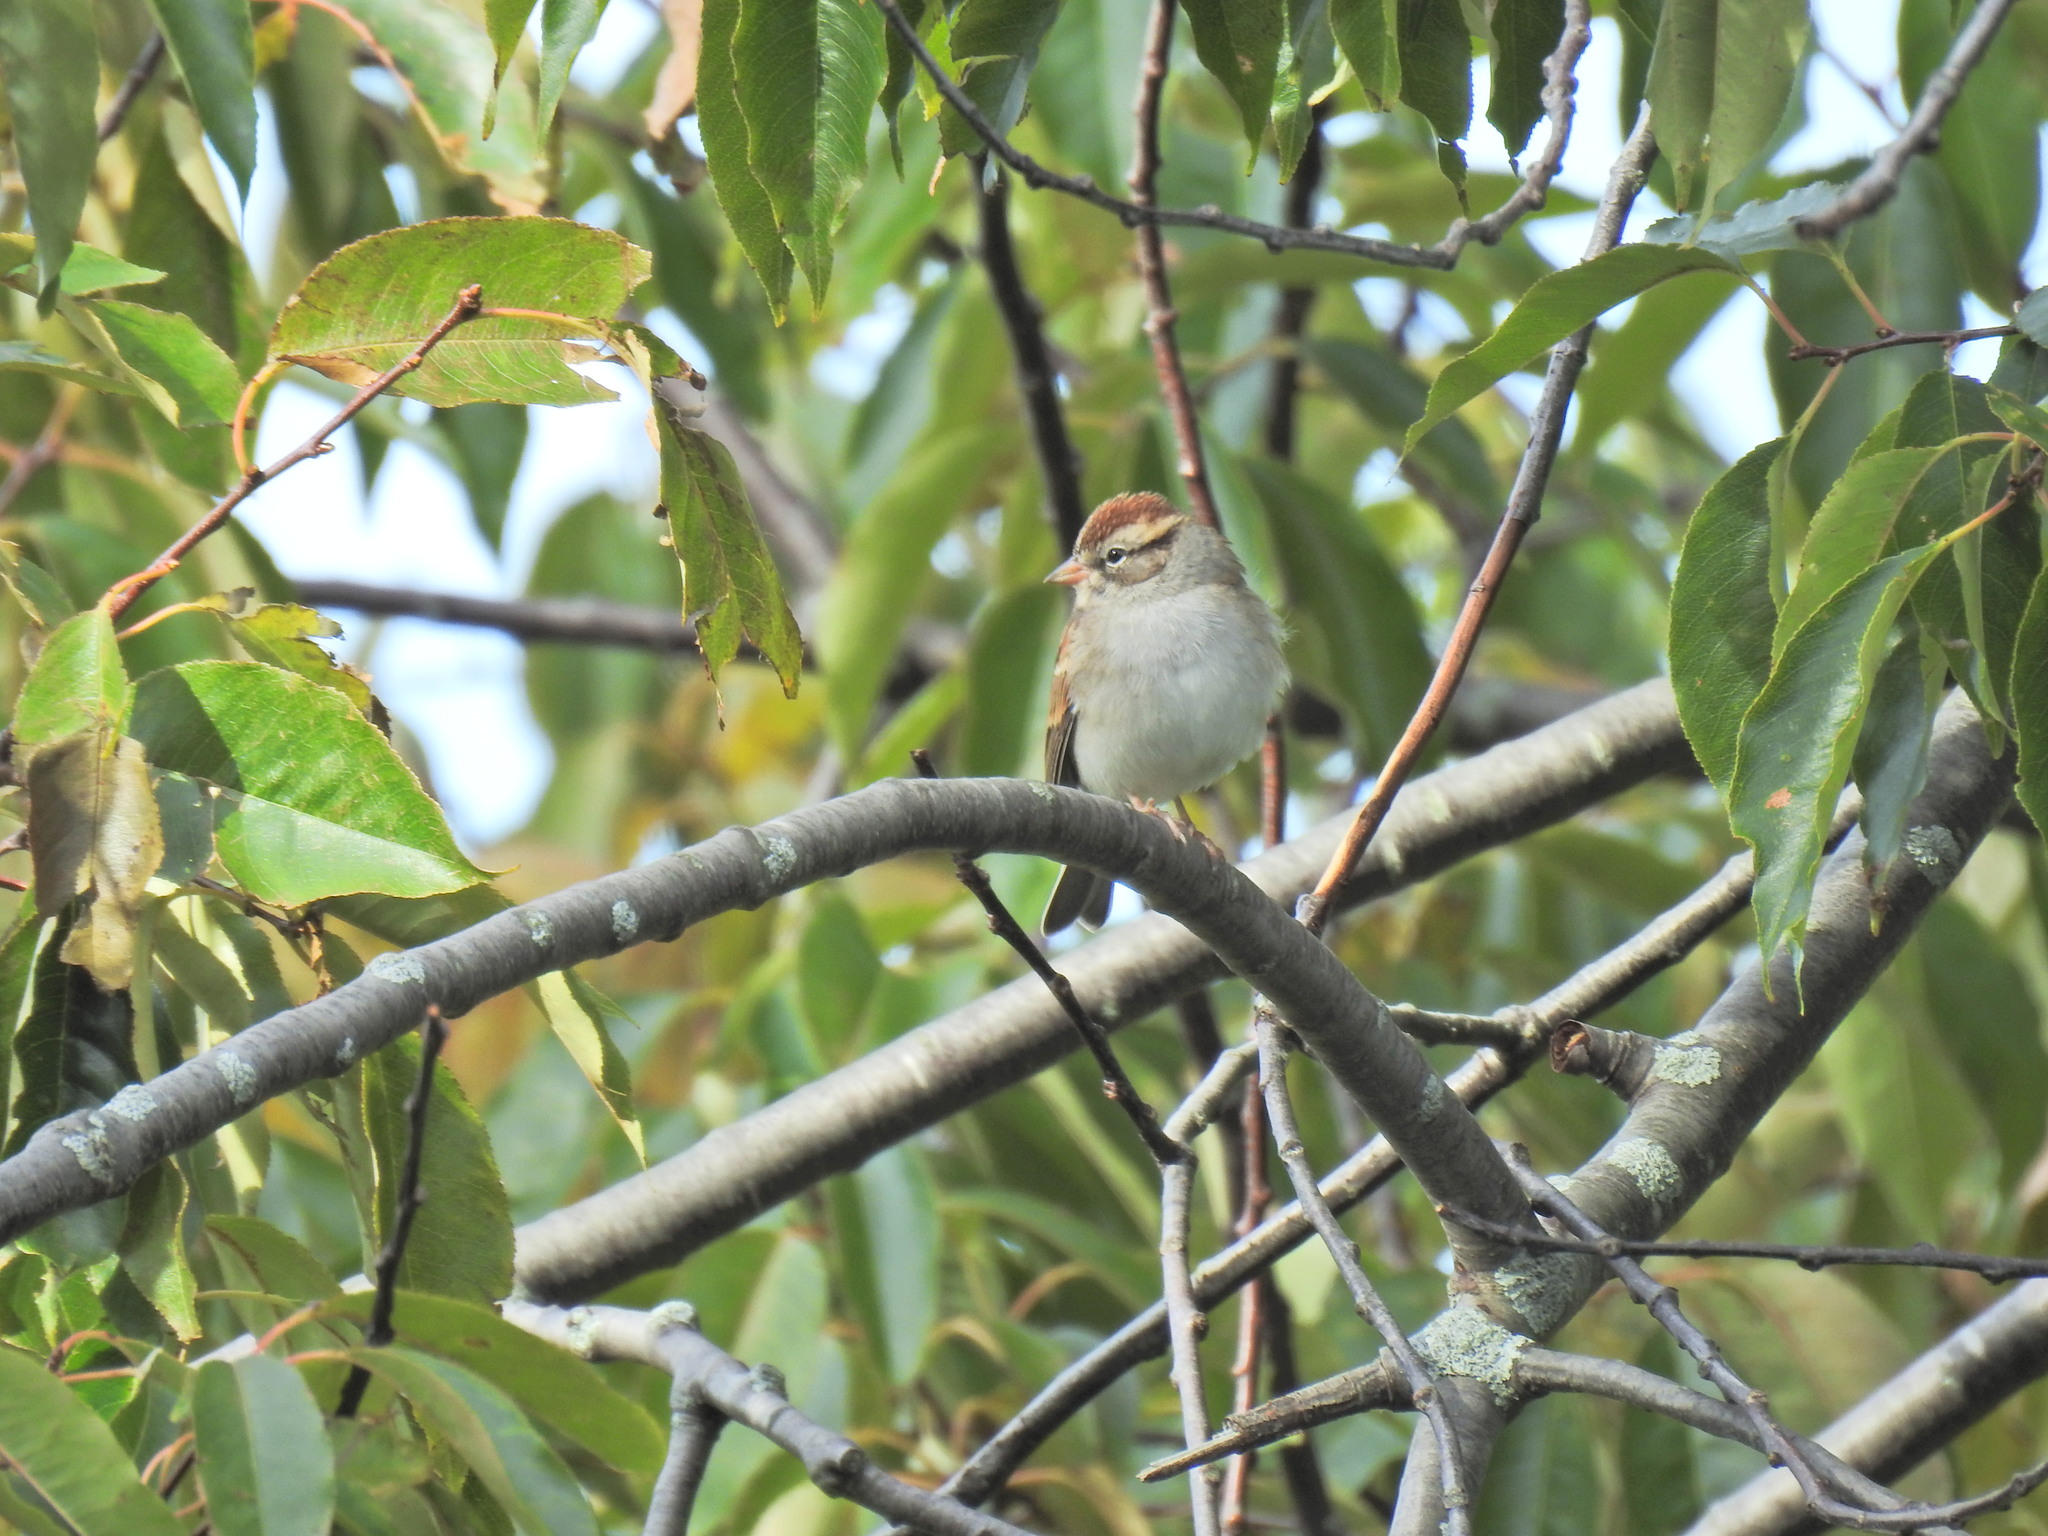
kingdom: Animalia
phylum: Chordata
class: Aves
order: Passeriformes
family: Passerellidae
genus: Spizella
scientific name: Spizella passerina
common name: Chipping sparrow
